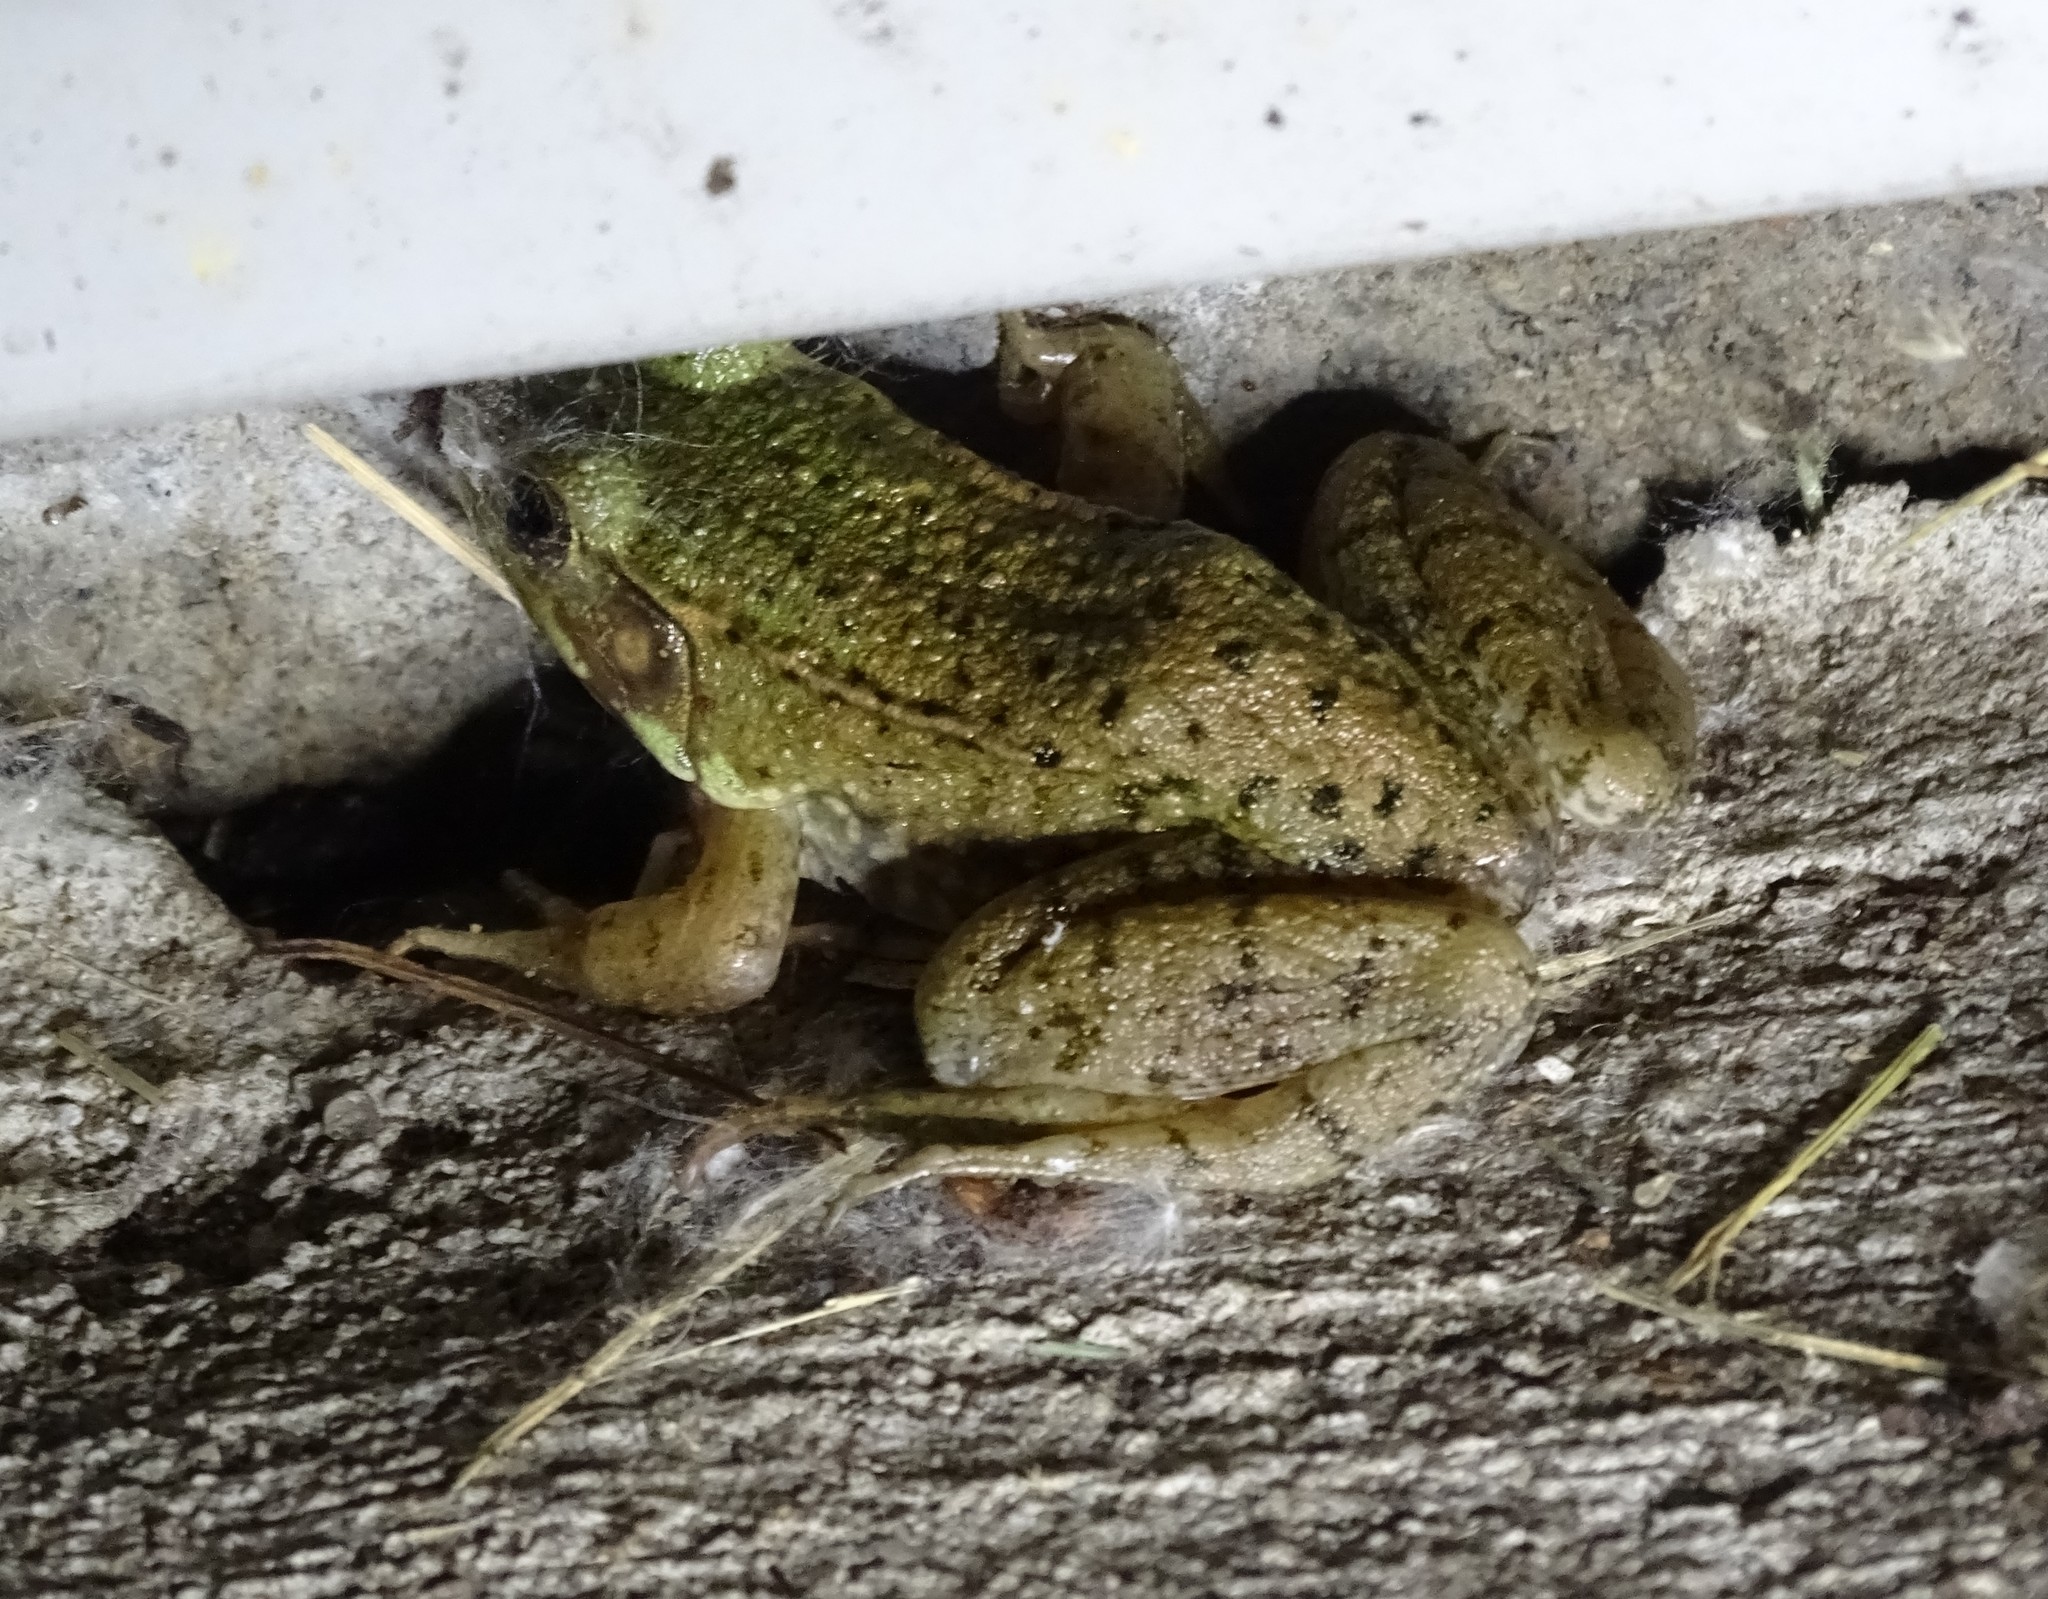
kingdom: Animalia
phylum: Chordata
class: Amphibia
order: Anura
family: Ranidae
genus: Lithobates
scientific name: Lithobates clamitans
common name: Green frog
